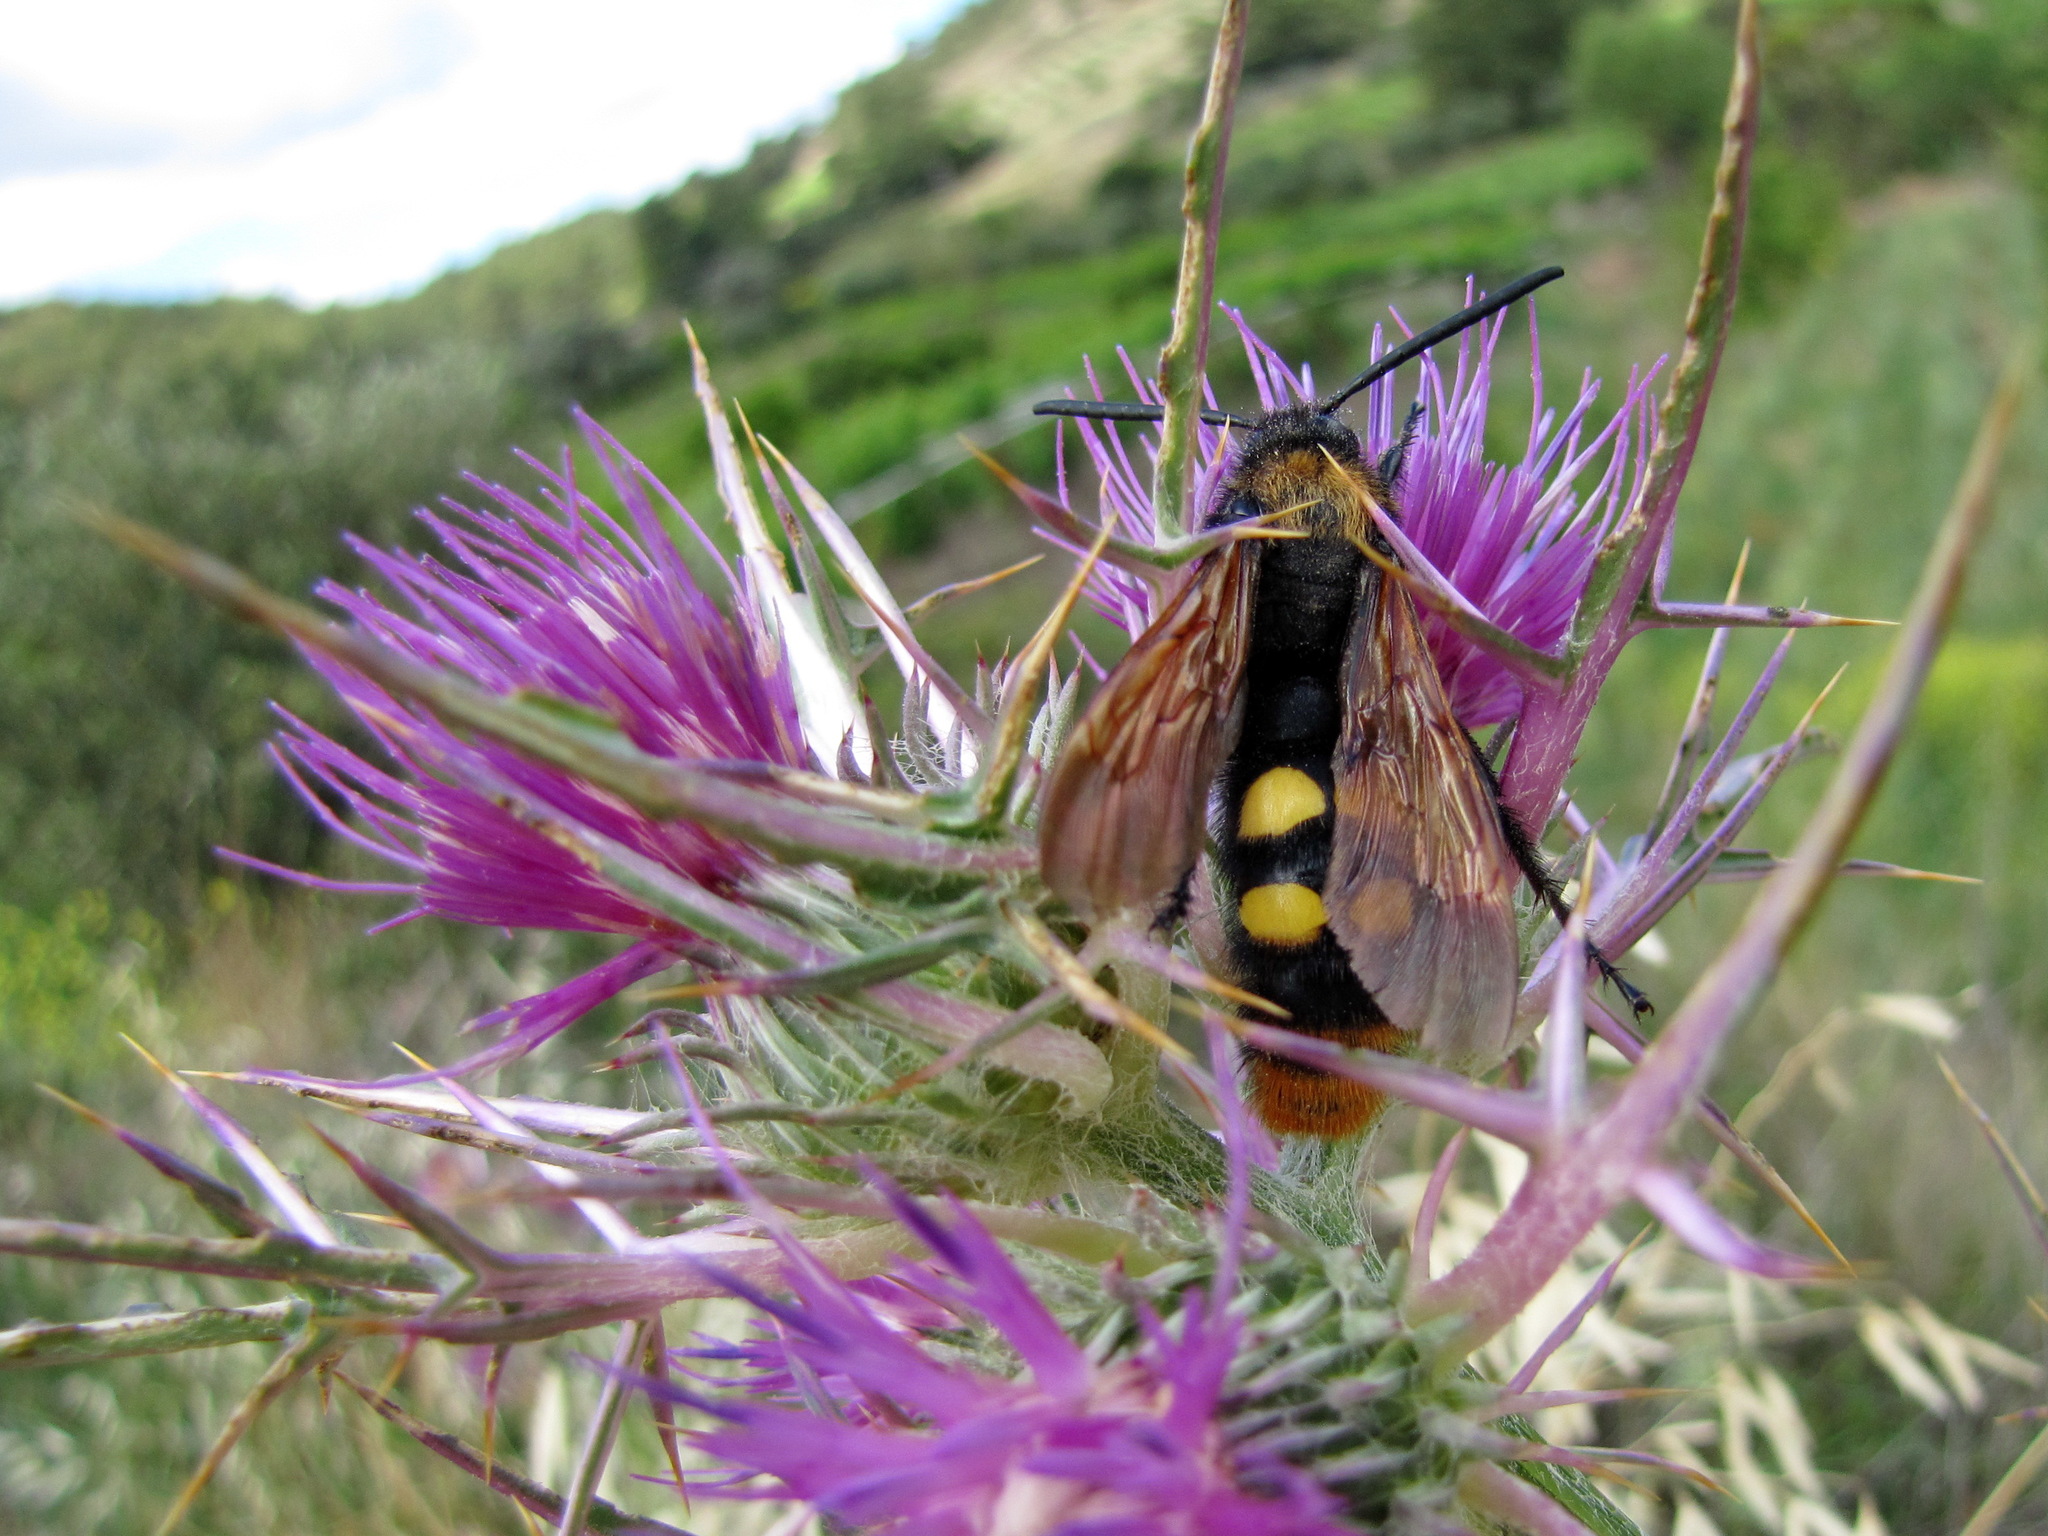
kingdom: Animalia
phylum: Arthropoda
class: Insecta
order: Hymenoptera
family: Scoliidae
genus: Megascolia
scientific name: Megascolia maculata
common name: Mammoth wasp
